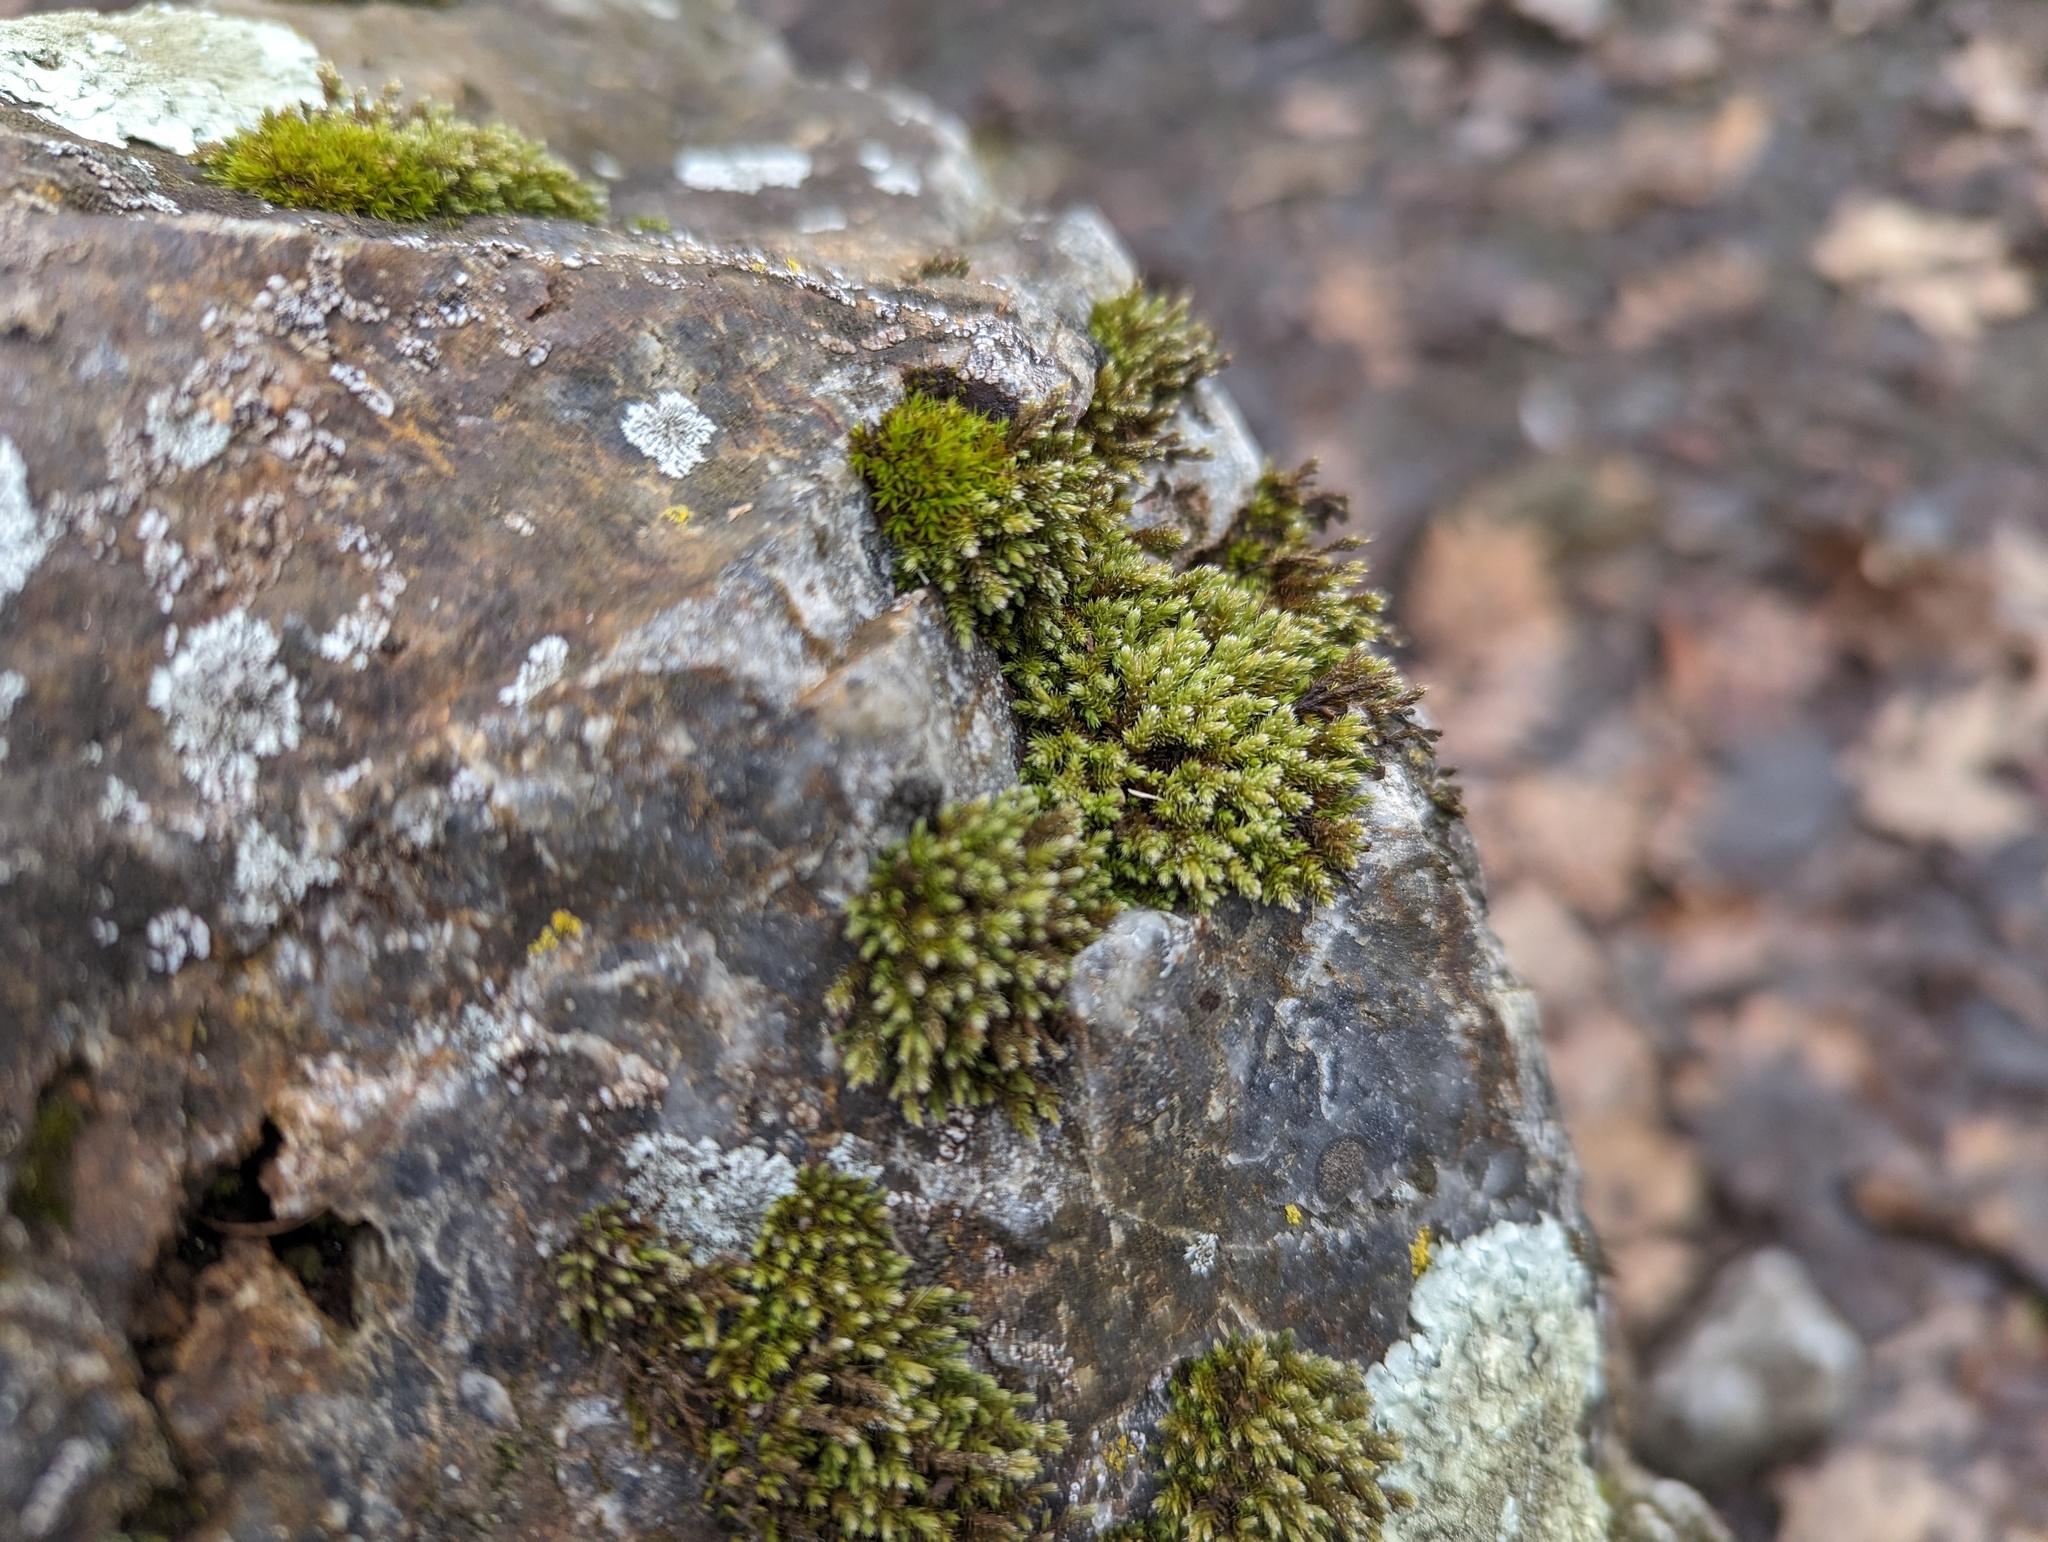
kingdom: Plantae
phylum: Bryophyta
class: Bryopsida
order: Hedwigiales
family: Hedwigiaceae
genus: Hedwigia
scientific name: Hedwigia ciliata
